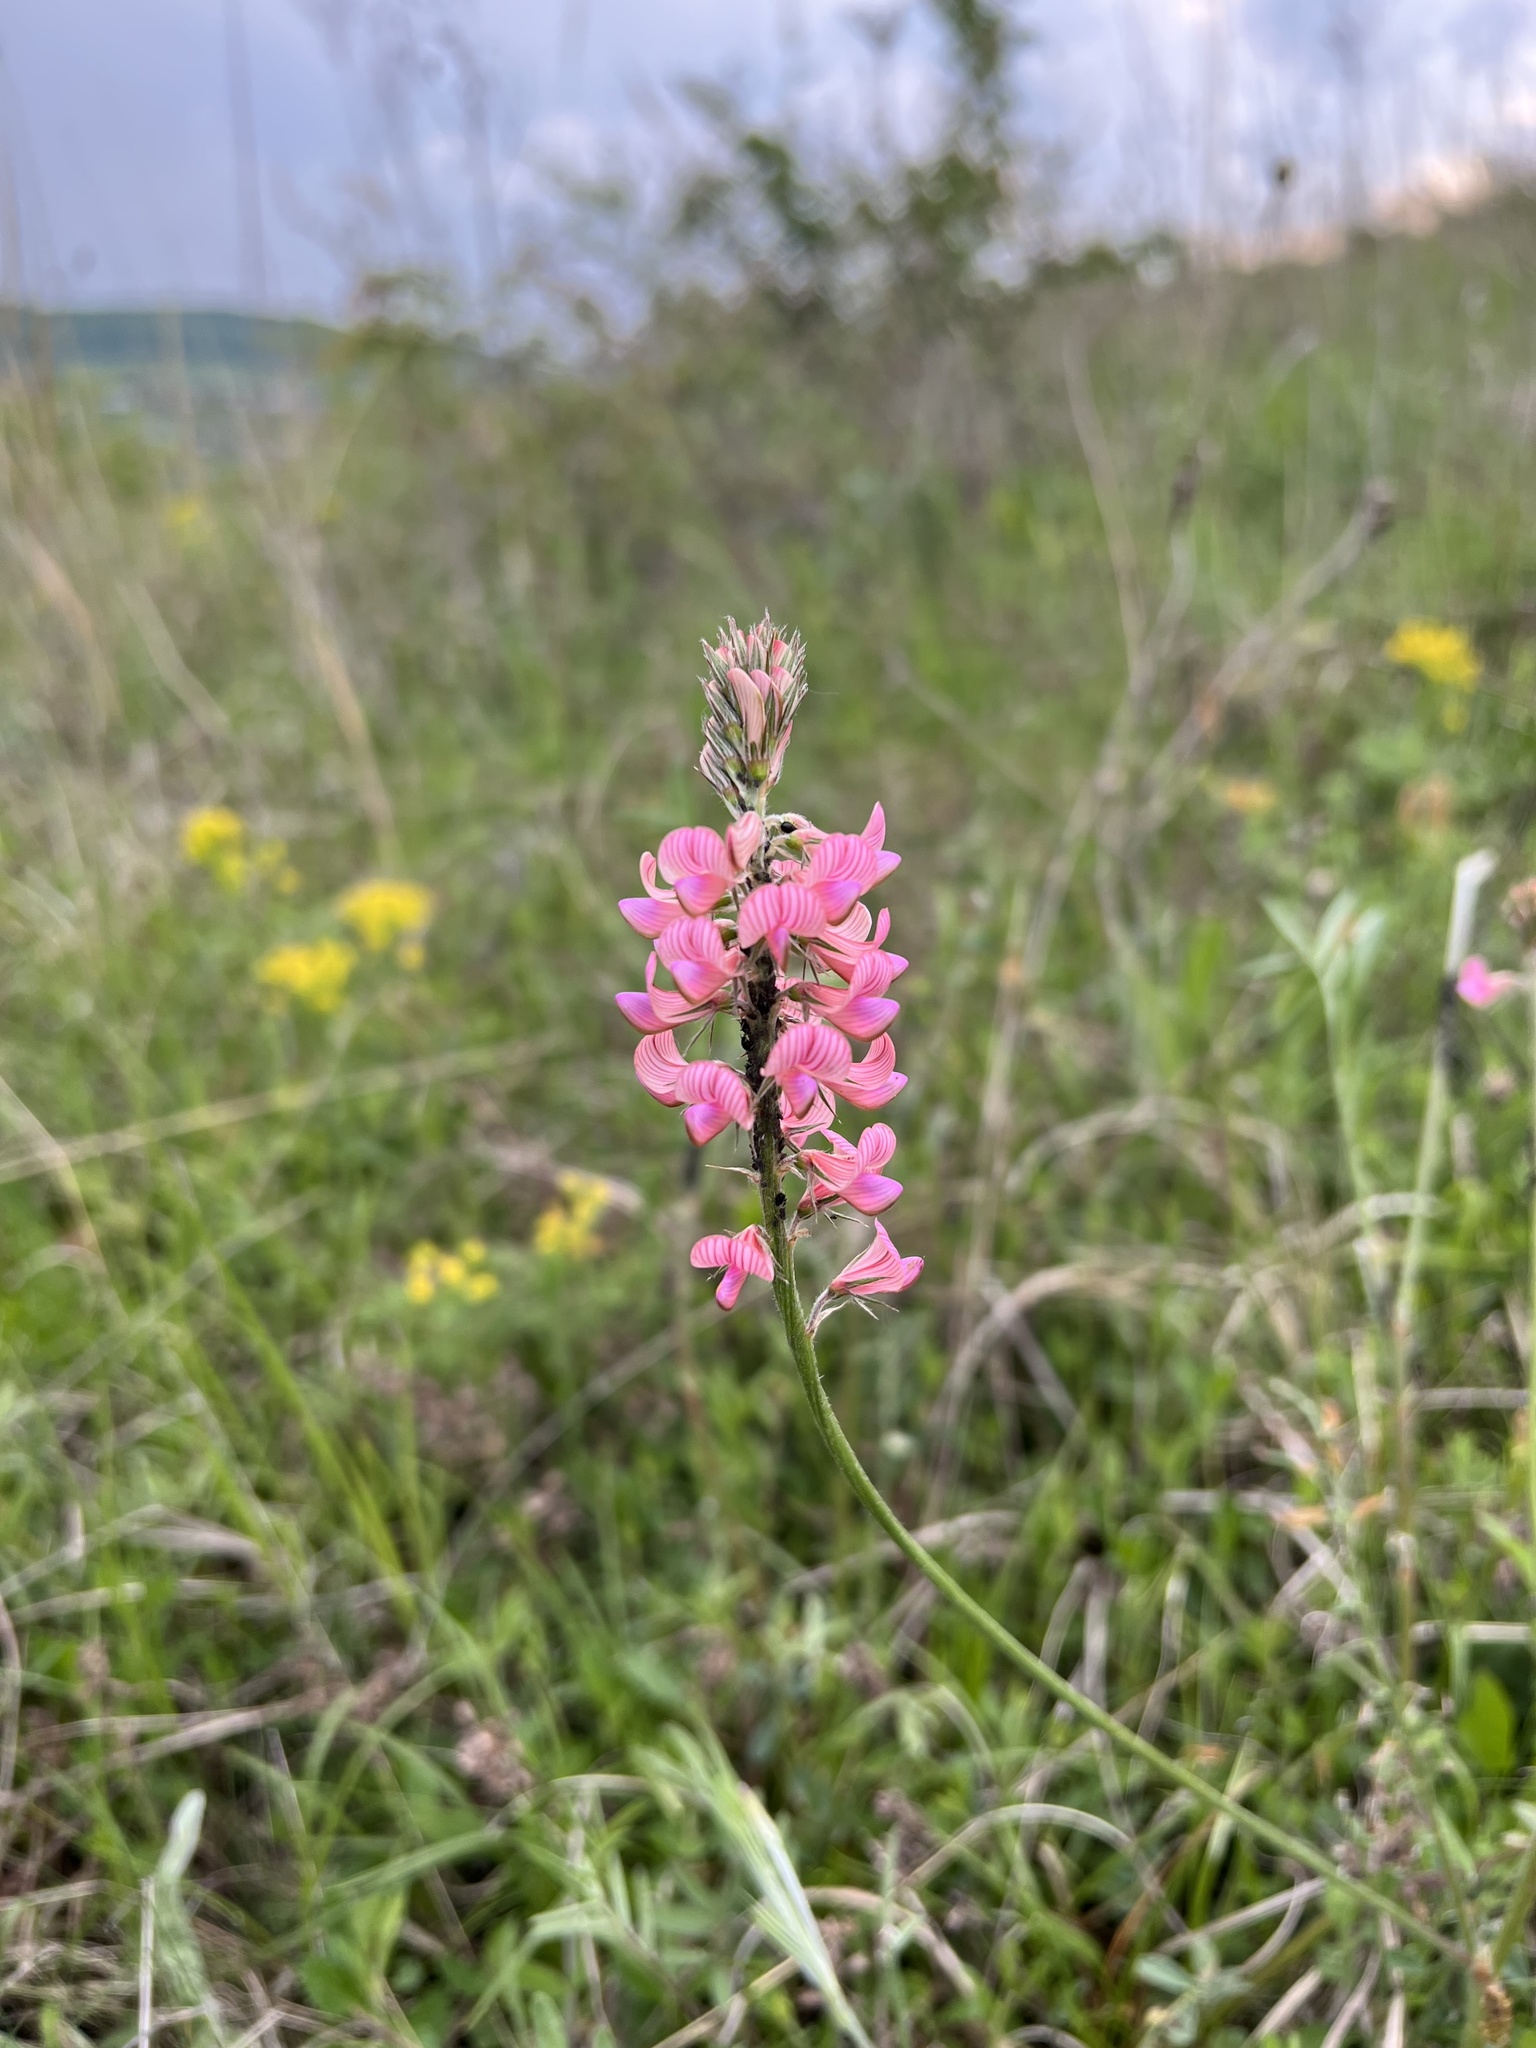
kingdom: Plantae
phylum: Tracheophyta
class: Magnoliopsida
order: Fabales
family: Fabaceae
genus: Onobrychis
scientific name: Onobrychis viciifolia
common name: Sainfoin
